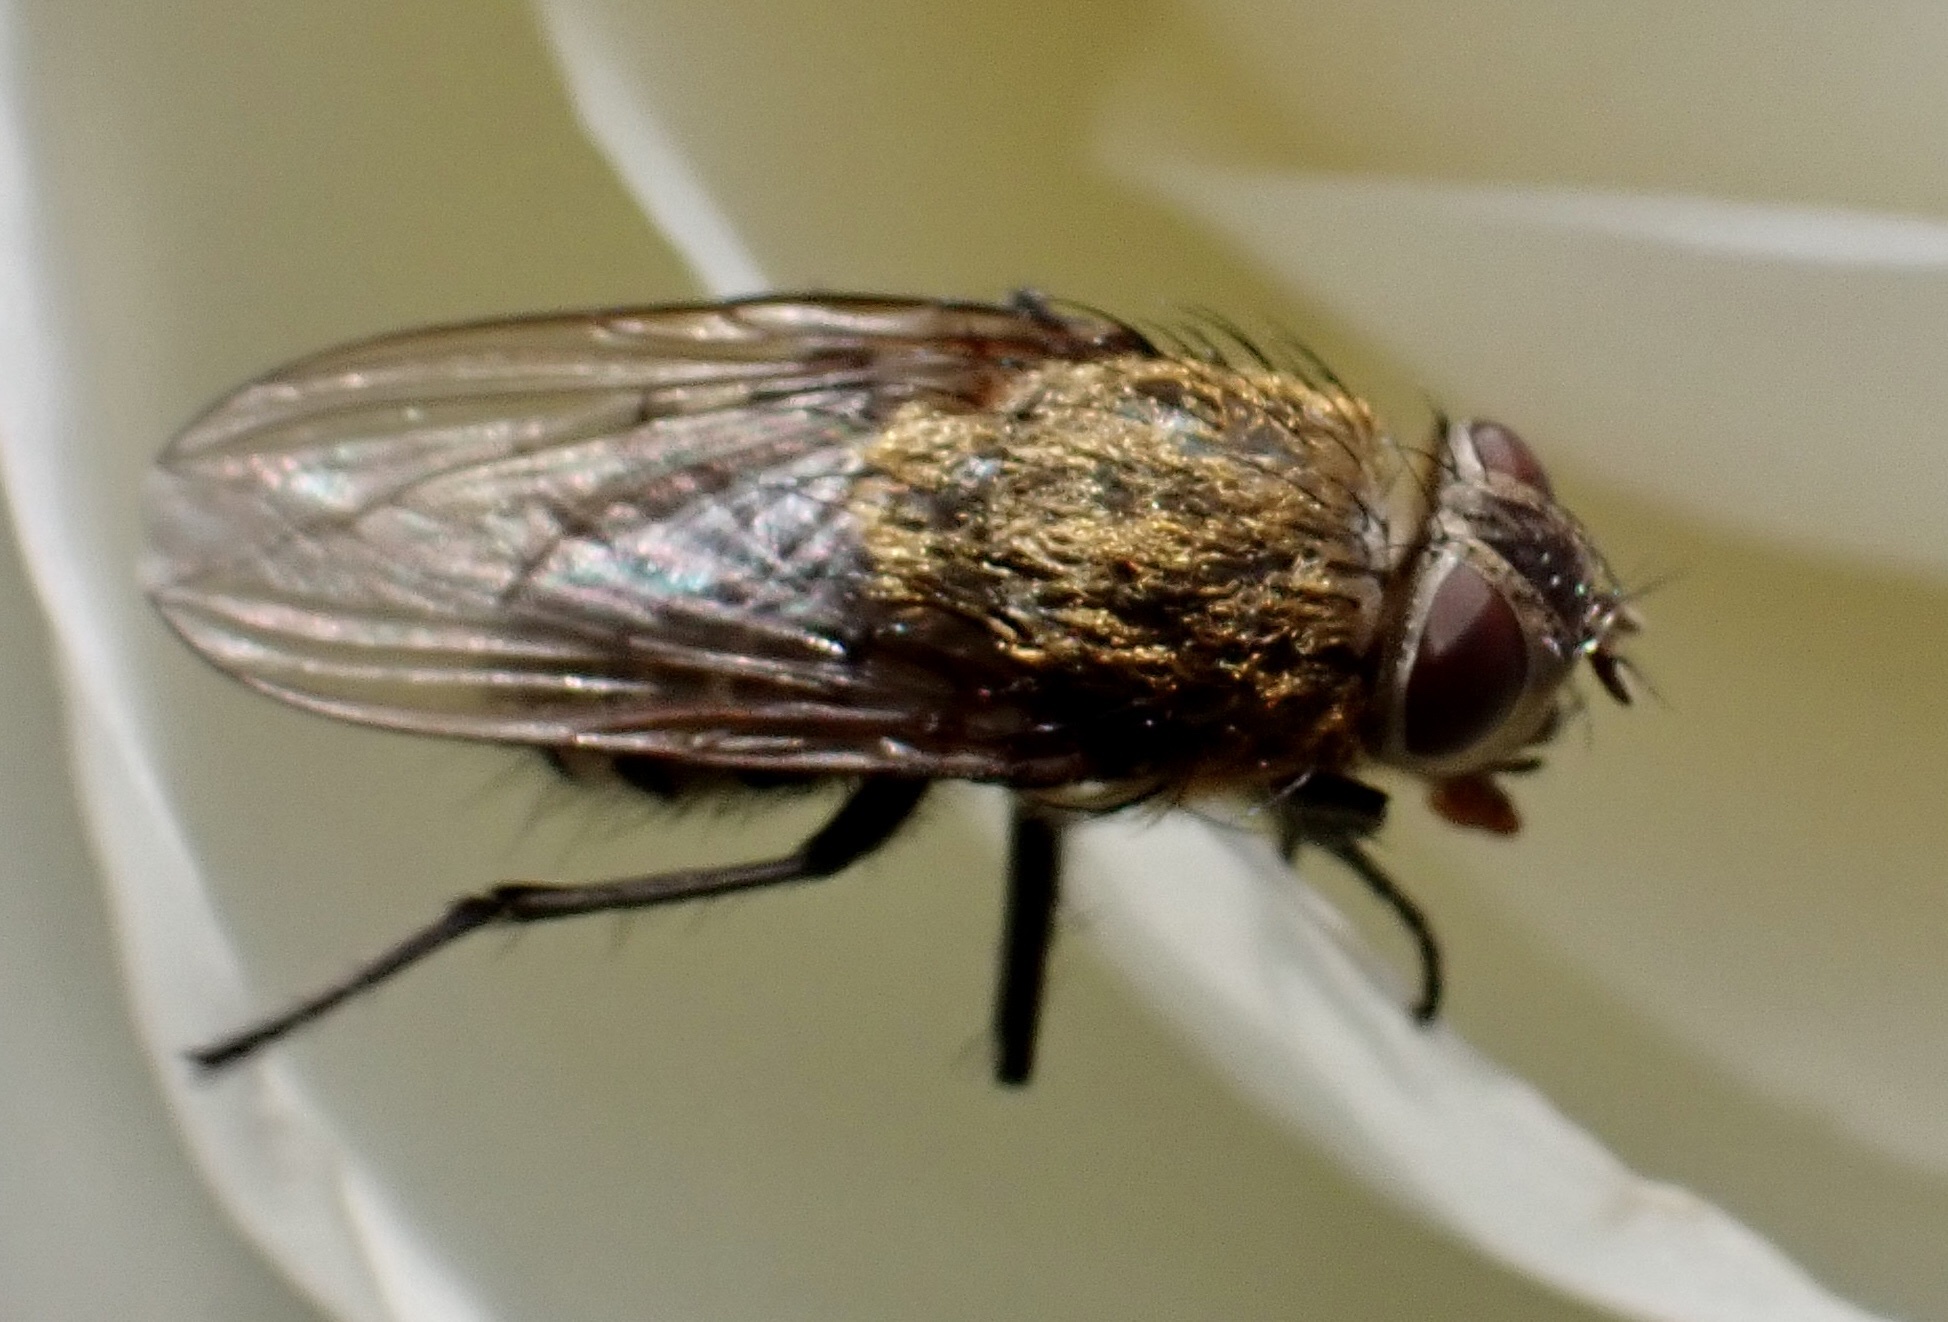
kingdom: Animalia
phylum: Arthropoda
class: Insecta
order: Diptera
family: Polleniidae
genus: Pollenia
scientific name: Pollenia
